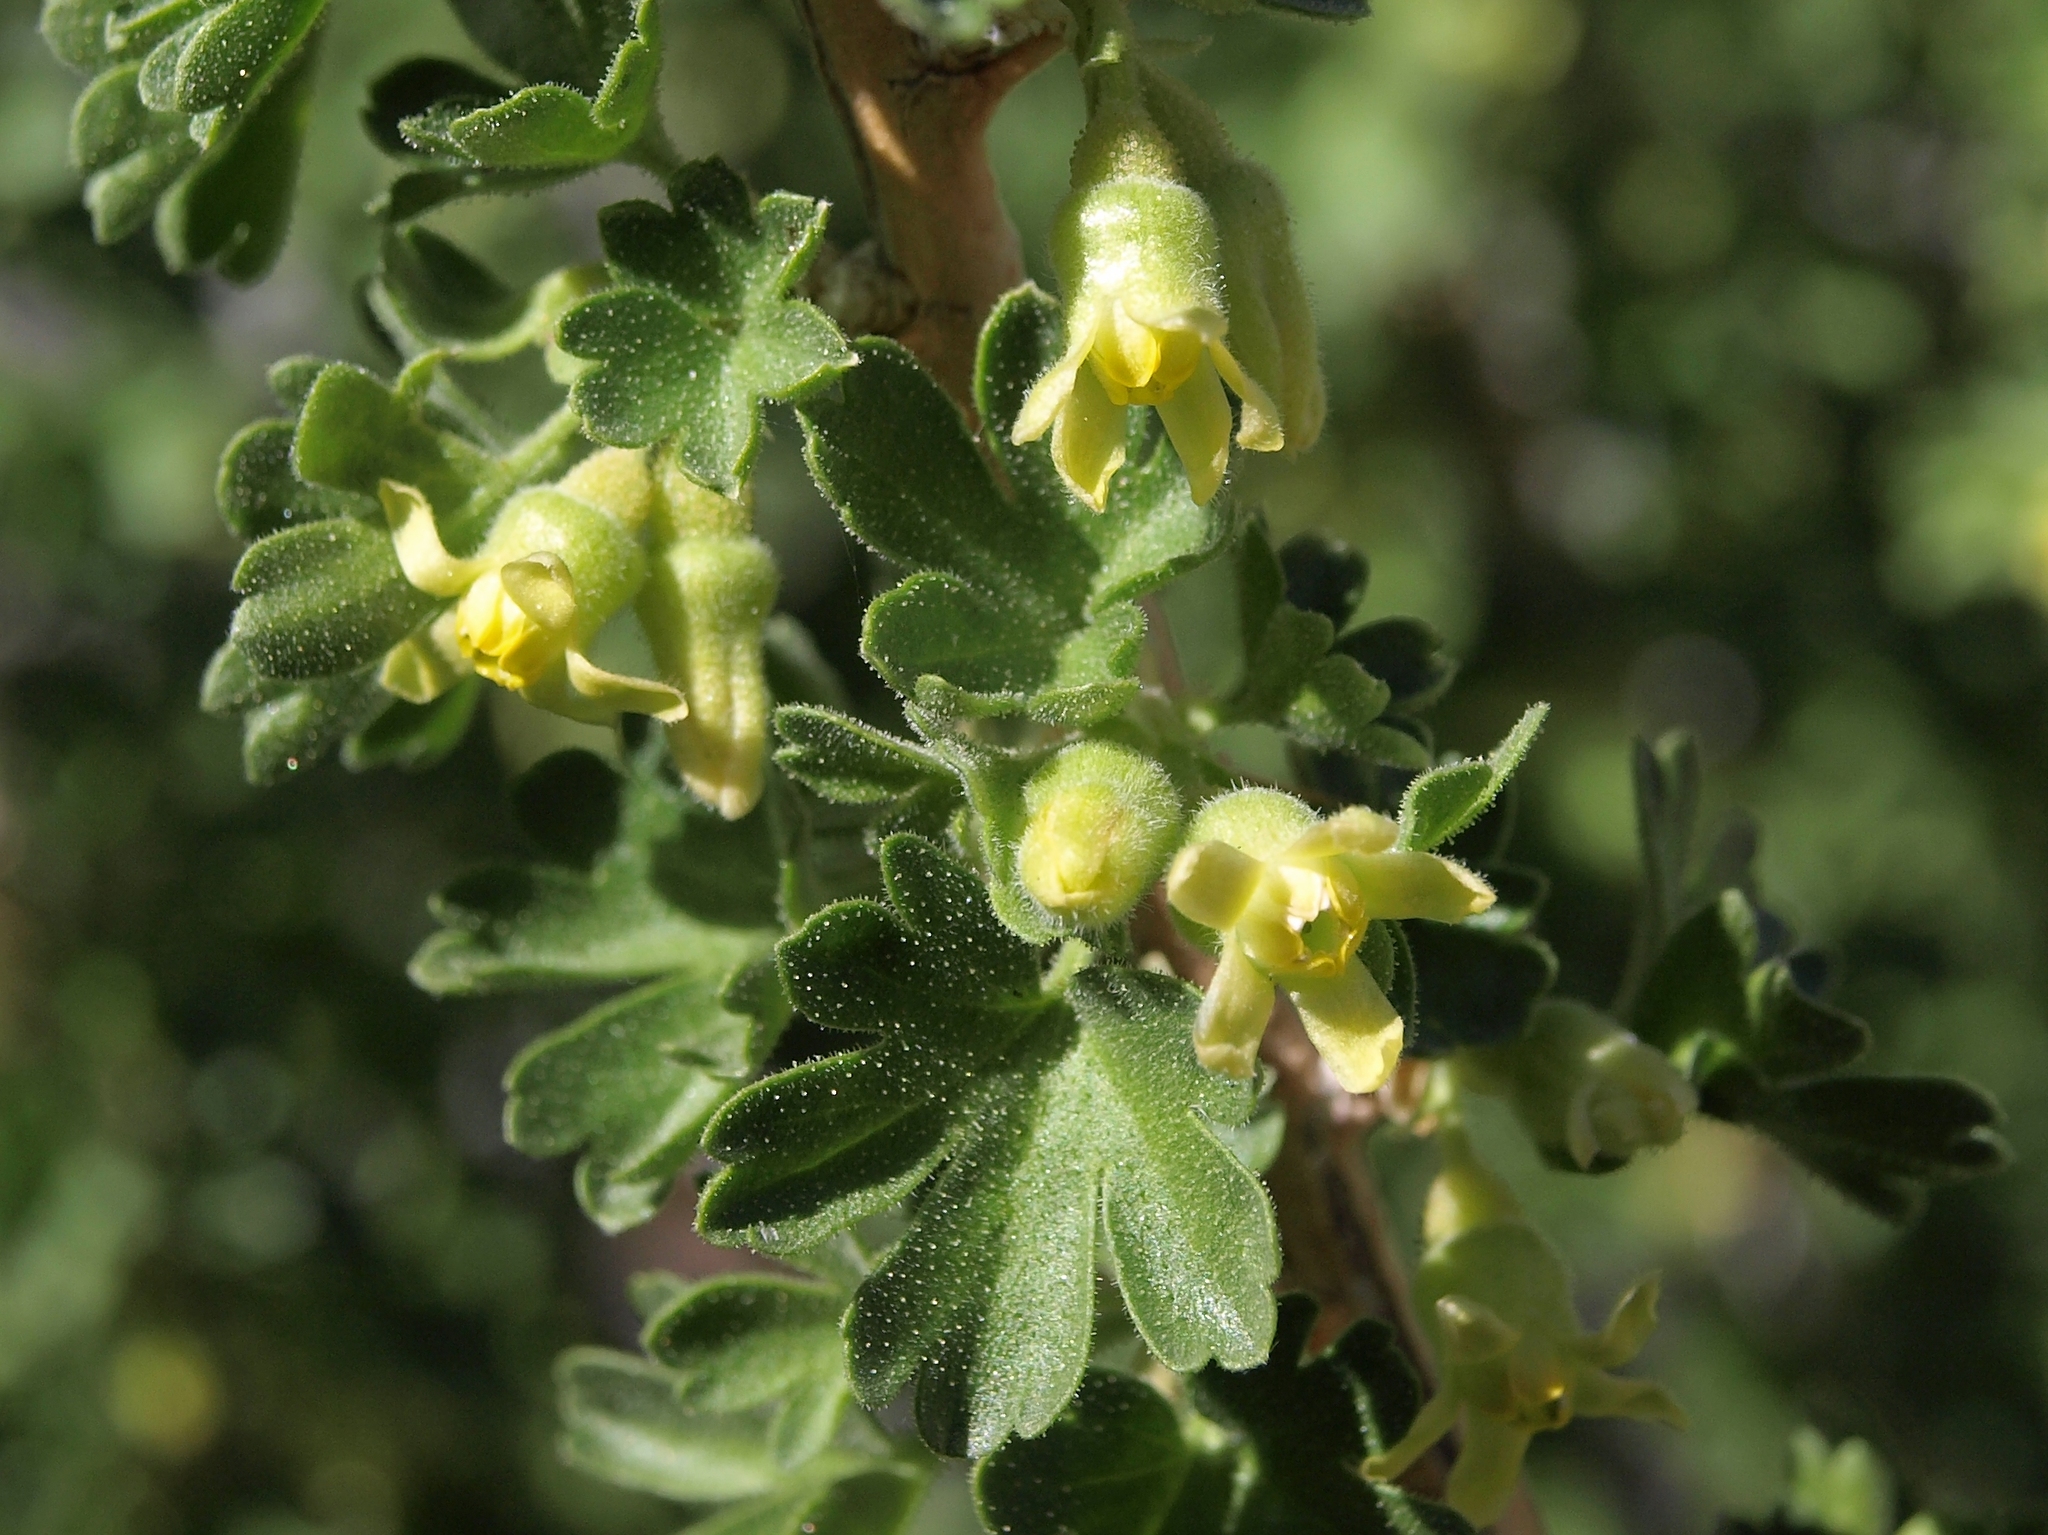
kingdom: Plantae
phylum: Tracheophyta
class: Magnoliopsida
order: Saxifragales
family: Grossulariaceae
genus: Ribes
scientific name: Ribes velutinum
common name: Desert gooseberry
